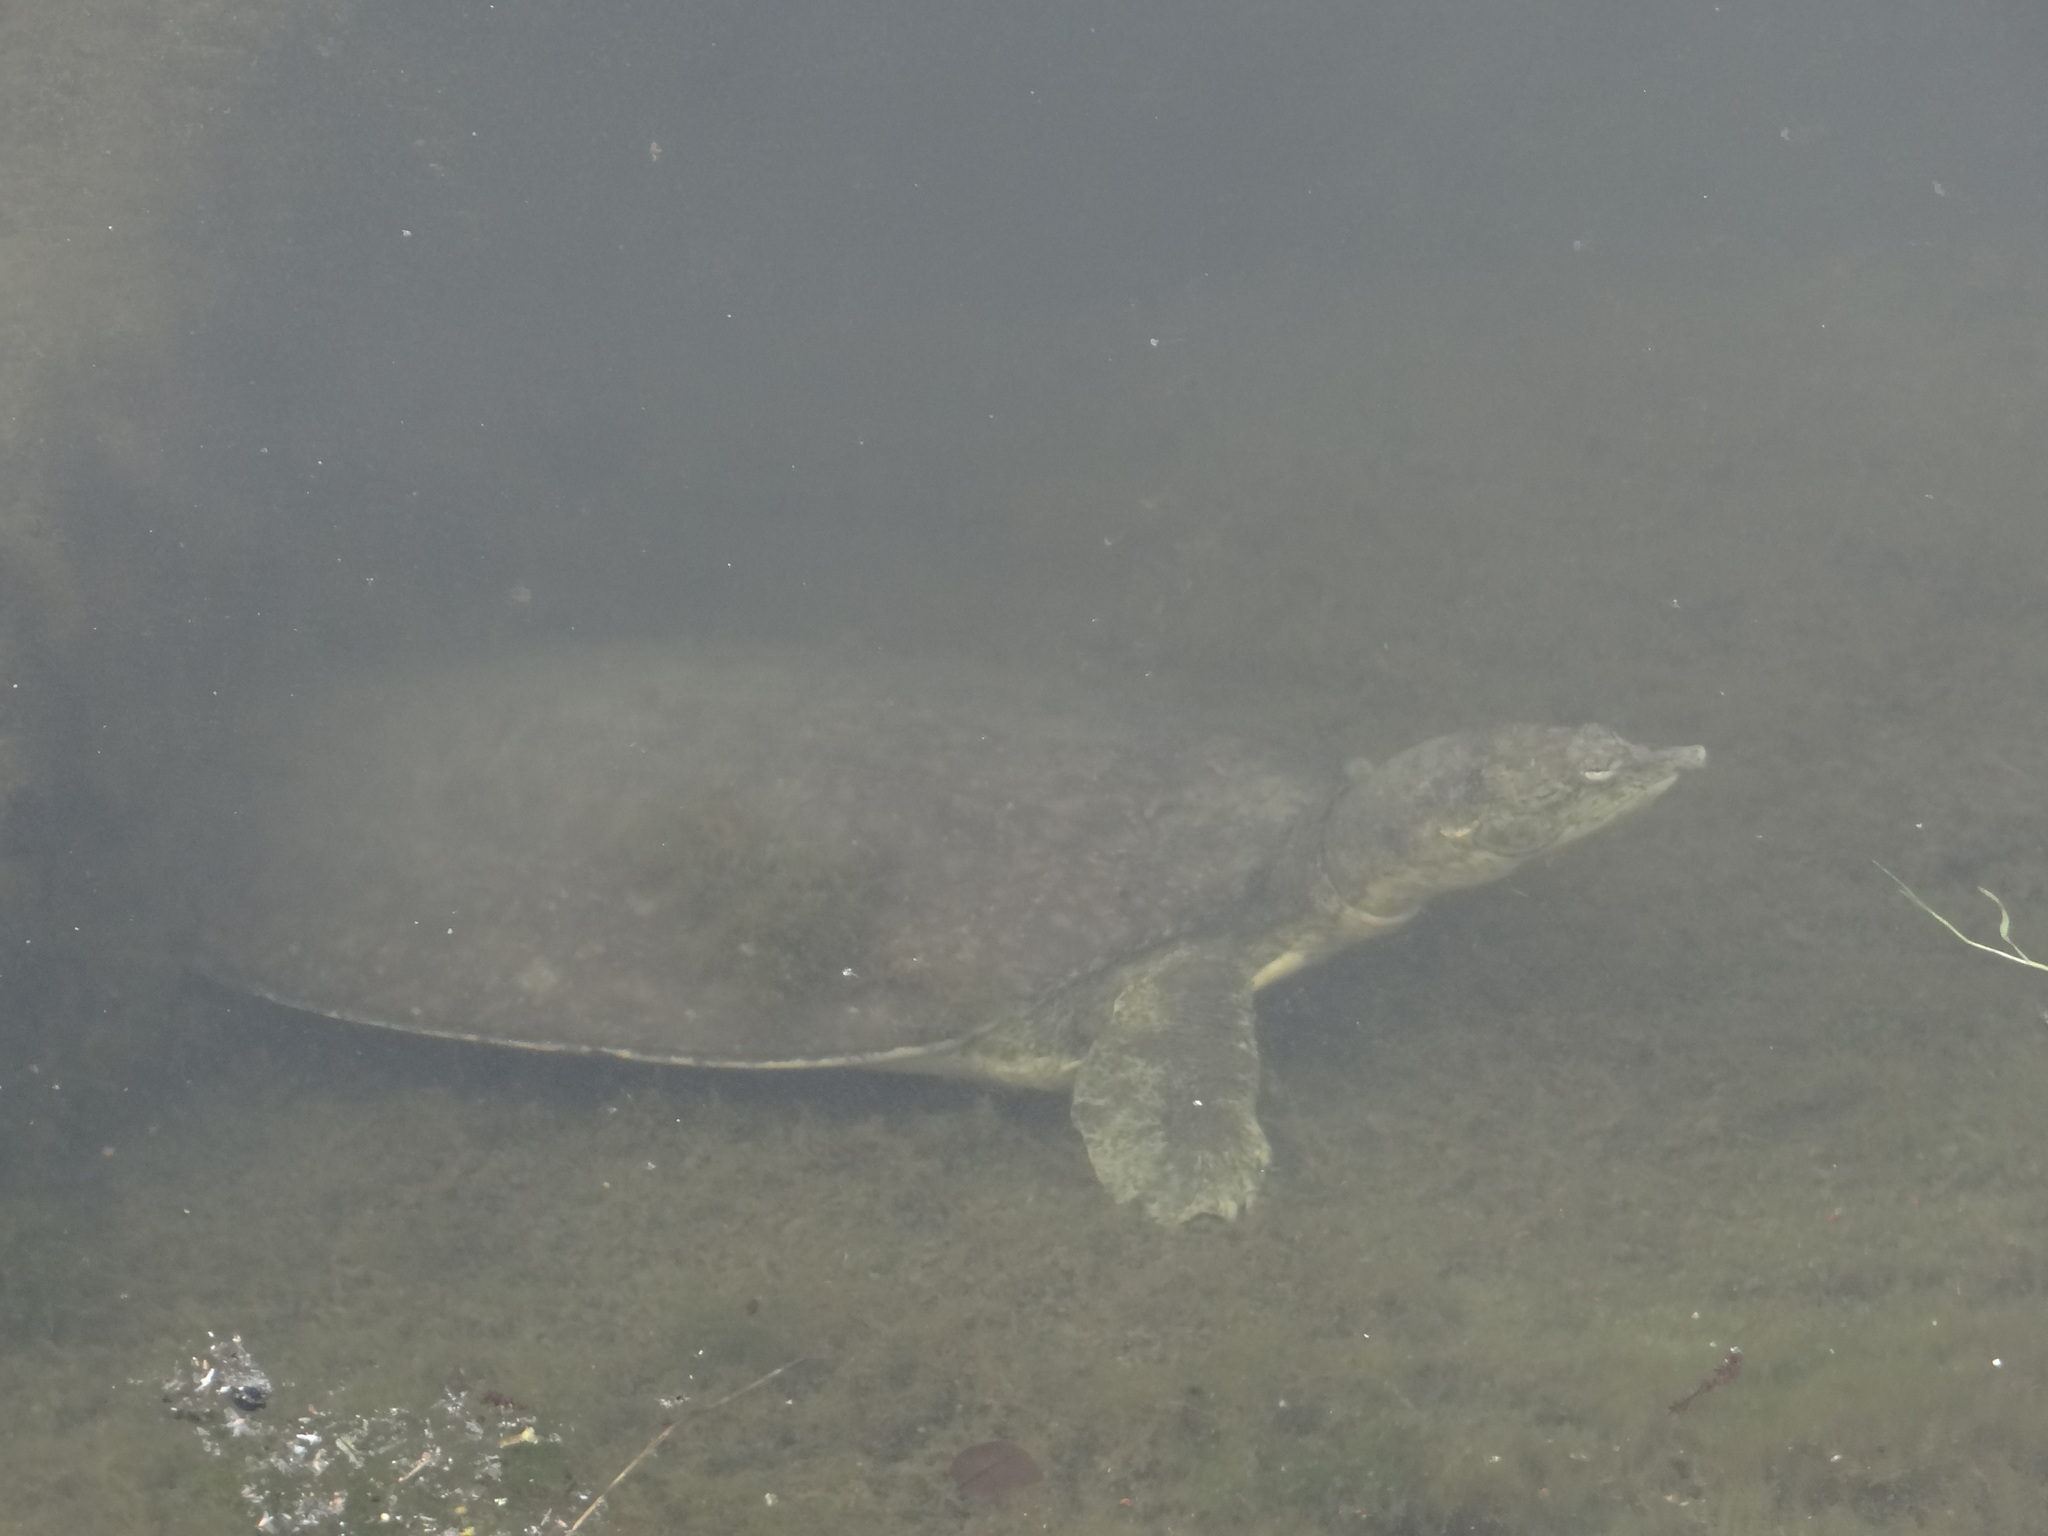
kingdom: Animalia
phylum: Chordata
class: Testudines
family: Trionychidae
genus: Apalone
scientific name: Apalone spinifera
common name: Spiny softshell turtle
